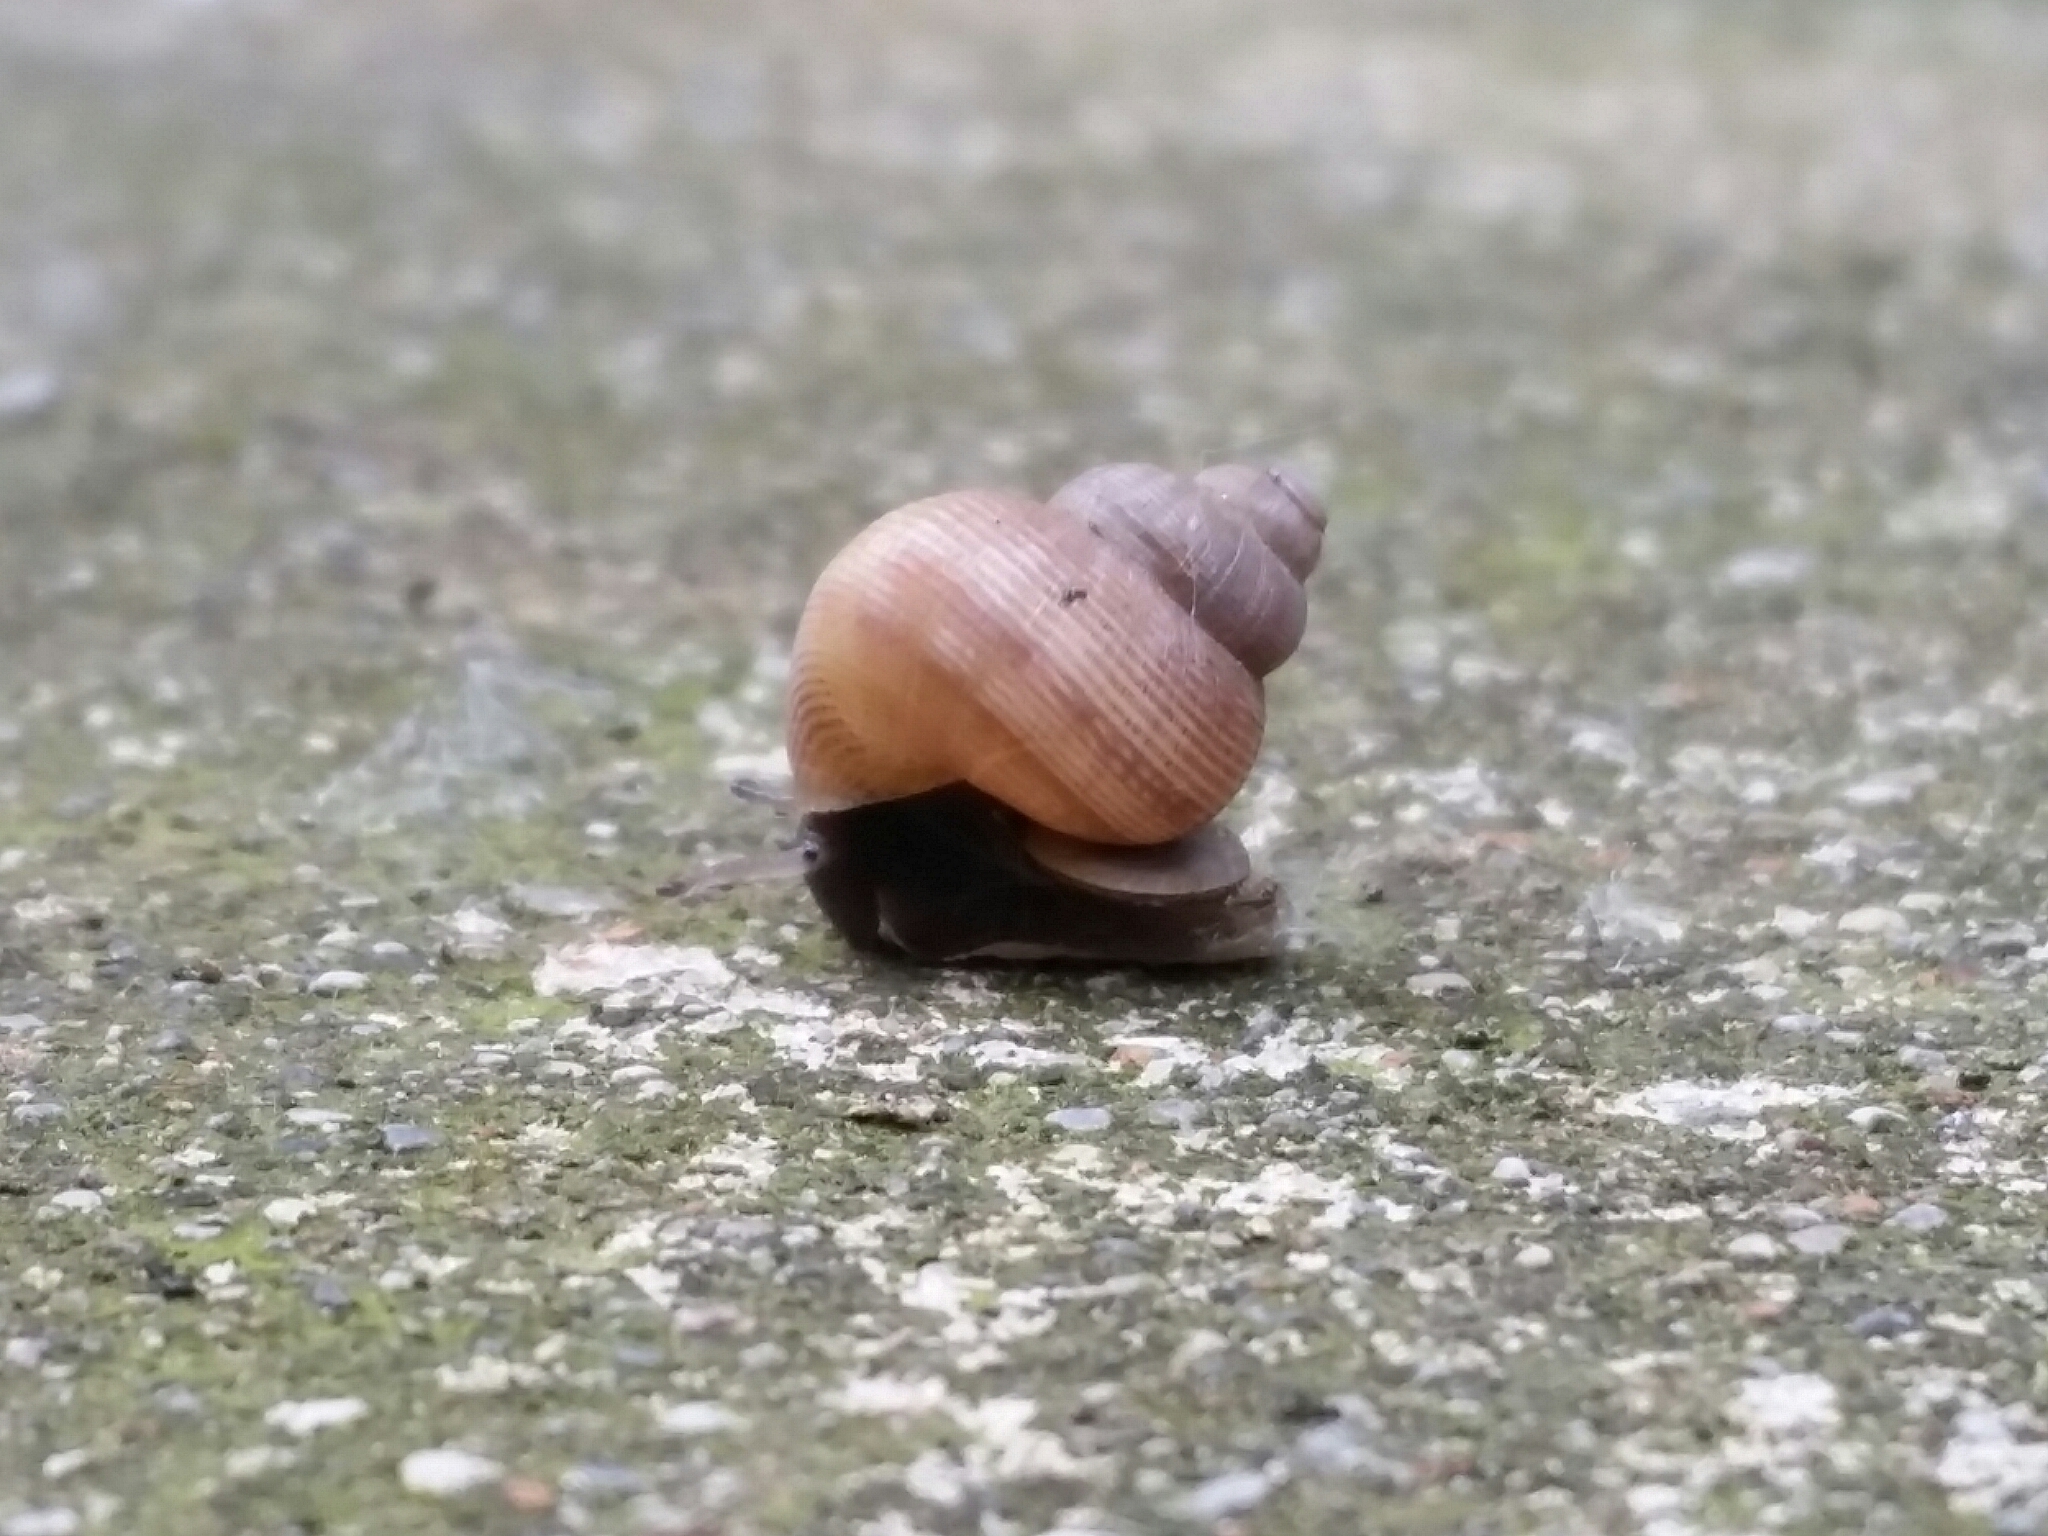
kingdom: Animalia
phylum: Mollusca
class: Gastropoda
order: Littorinimorpha
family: Pomatiidae
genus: Pomatias
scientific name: Pomatias elegans
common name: Red-mouthed snail
